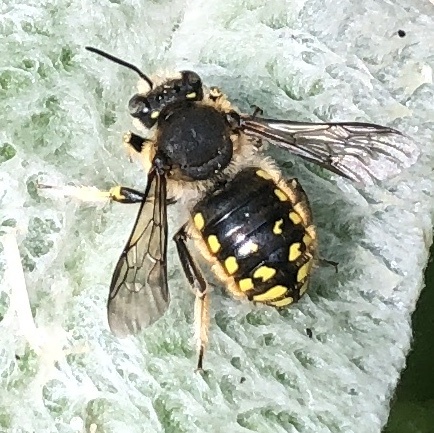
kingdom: Animalia
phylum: Arthropoda
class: Insecta
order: Hymenoptera
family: Megachilidae
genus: Anthidium
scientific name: Anthidium manicatum
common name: Wool carder bee
